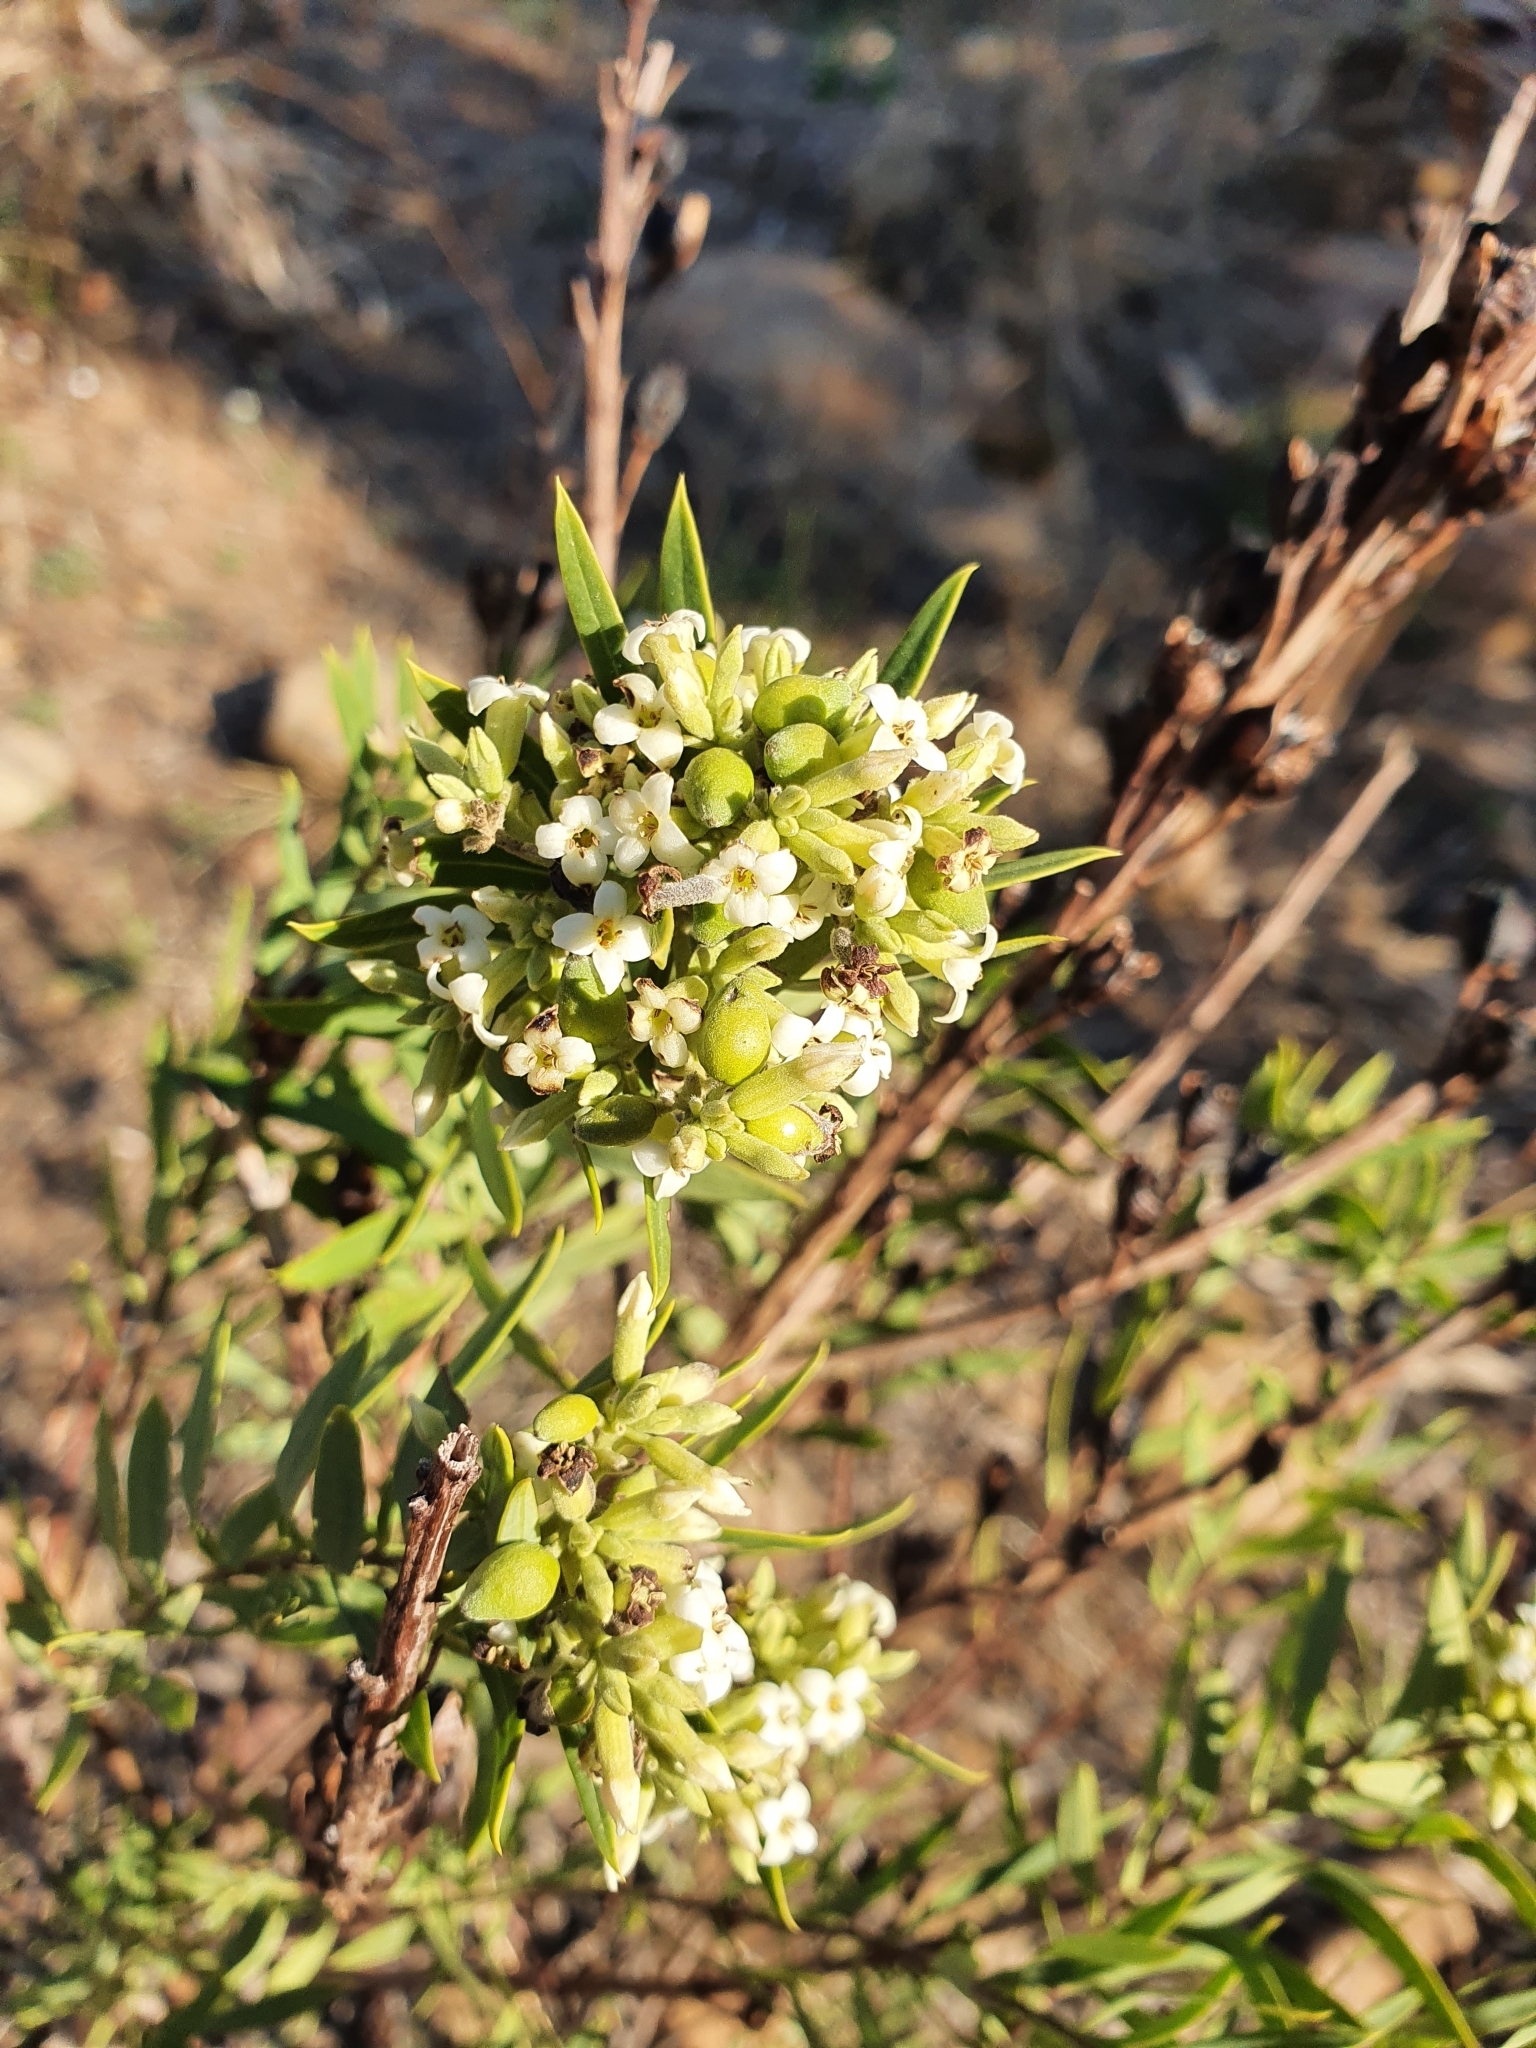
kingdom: Plantae
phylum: Tracheophyta
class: Magnoliopsida
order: Malvales
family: Thymelaeaceae
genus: Daphne
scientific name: Daphne gnidium
